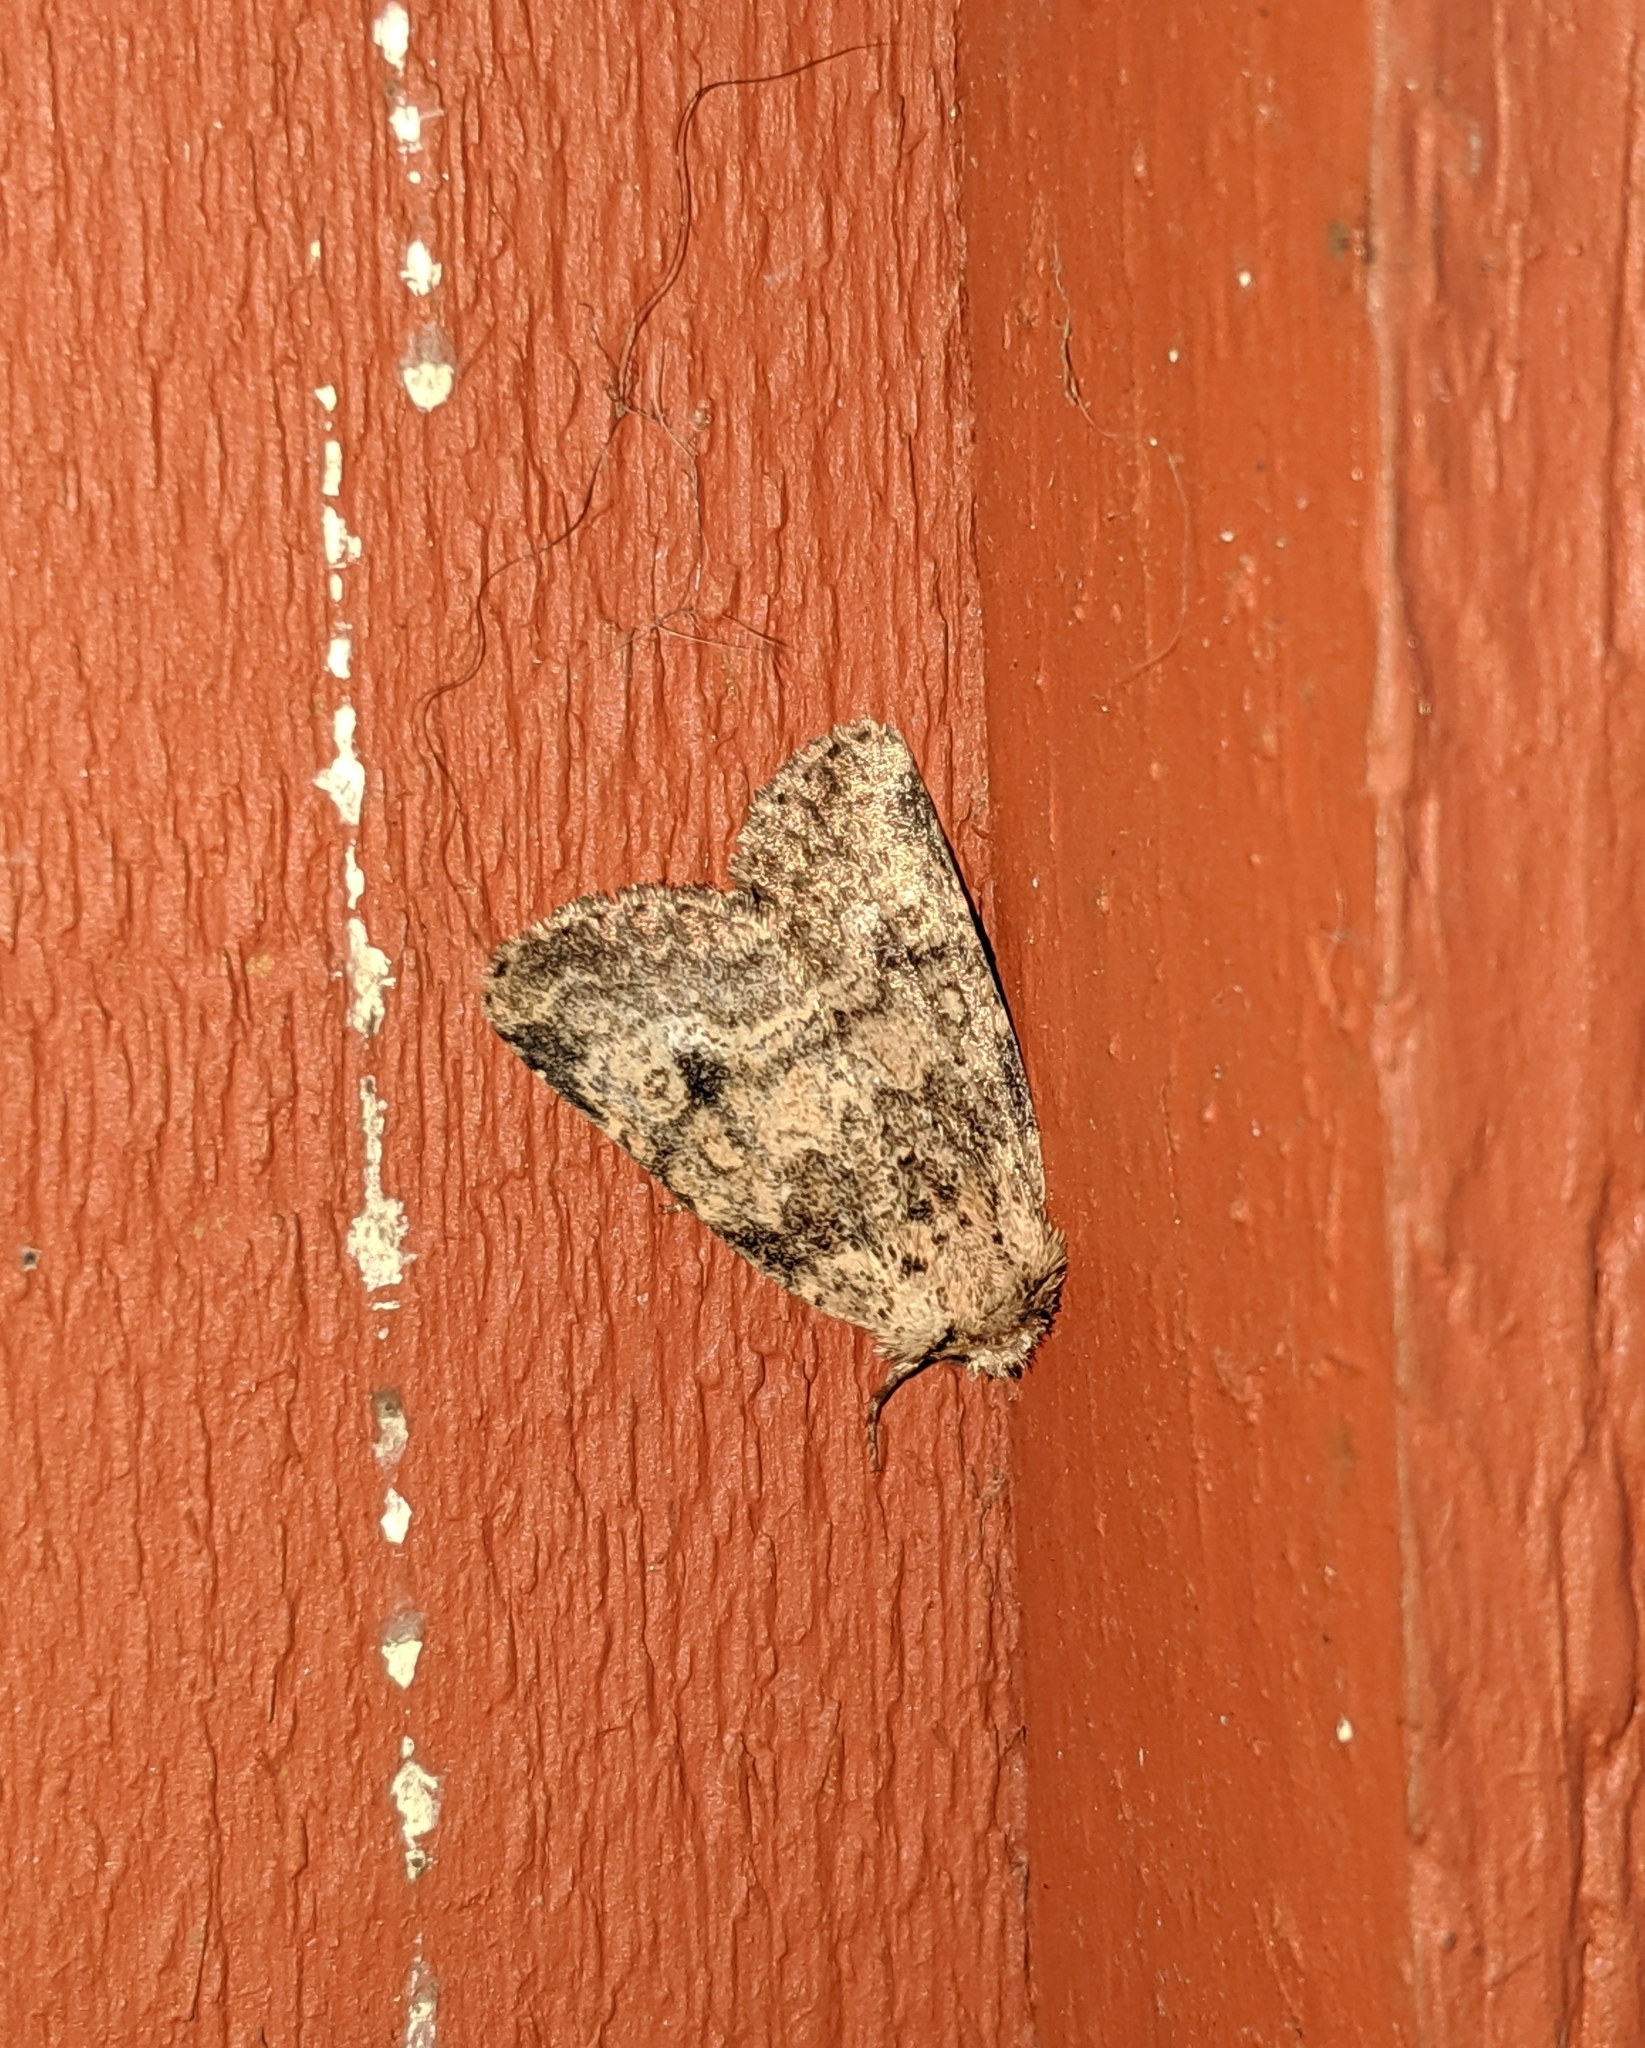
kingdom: Animalia
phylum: Arthropoda
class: Insecta
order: Lepidoptera
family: Noctuidae
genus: Homorthodes
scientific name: Homorthodes hanhami
